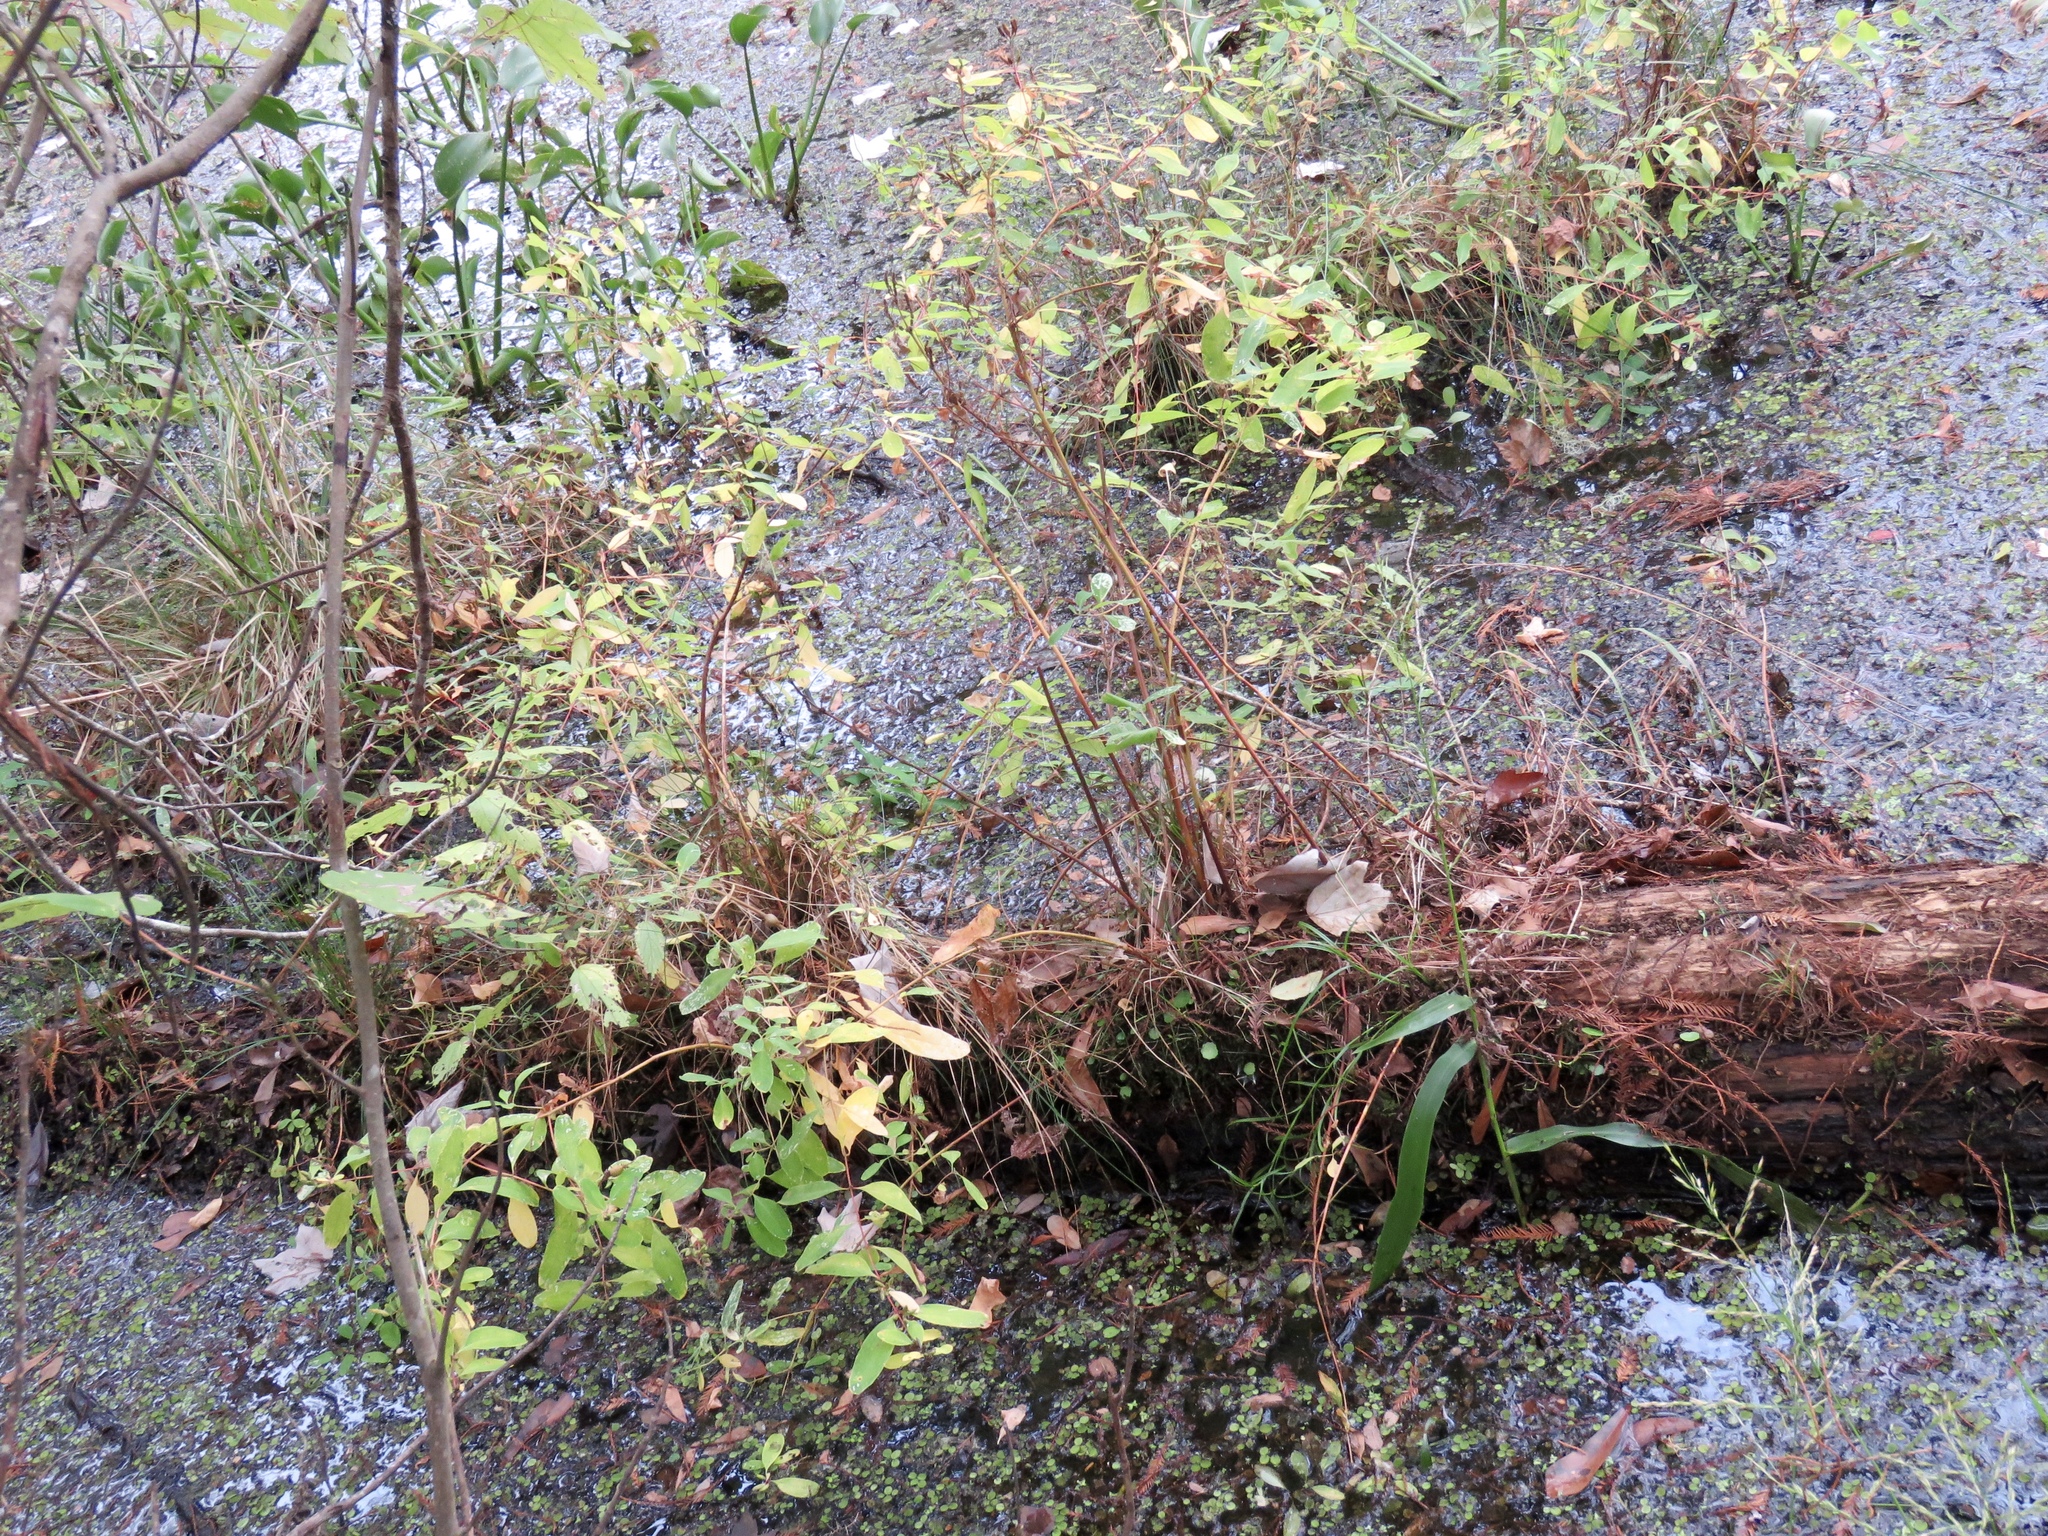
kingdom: Plantae
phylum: Tracheophyta
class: Magnoliopsida
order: Malpighiales
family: Hypericaceae
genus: Triadenum
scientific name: Triadenum walteri
